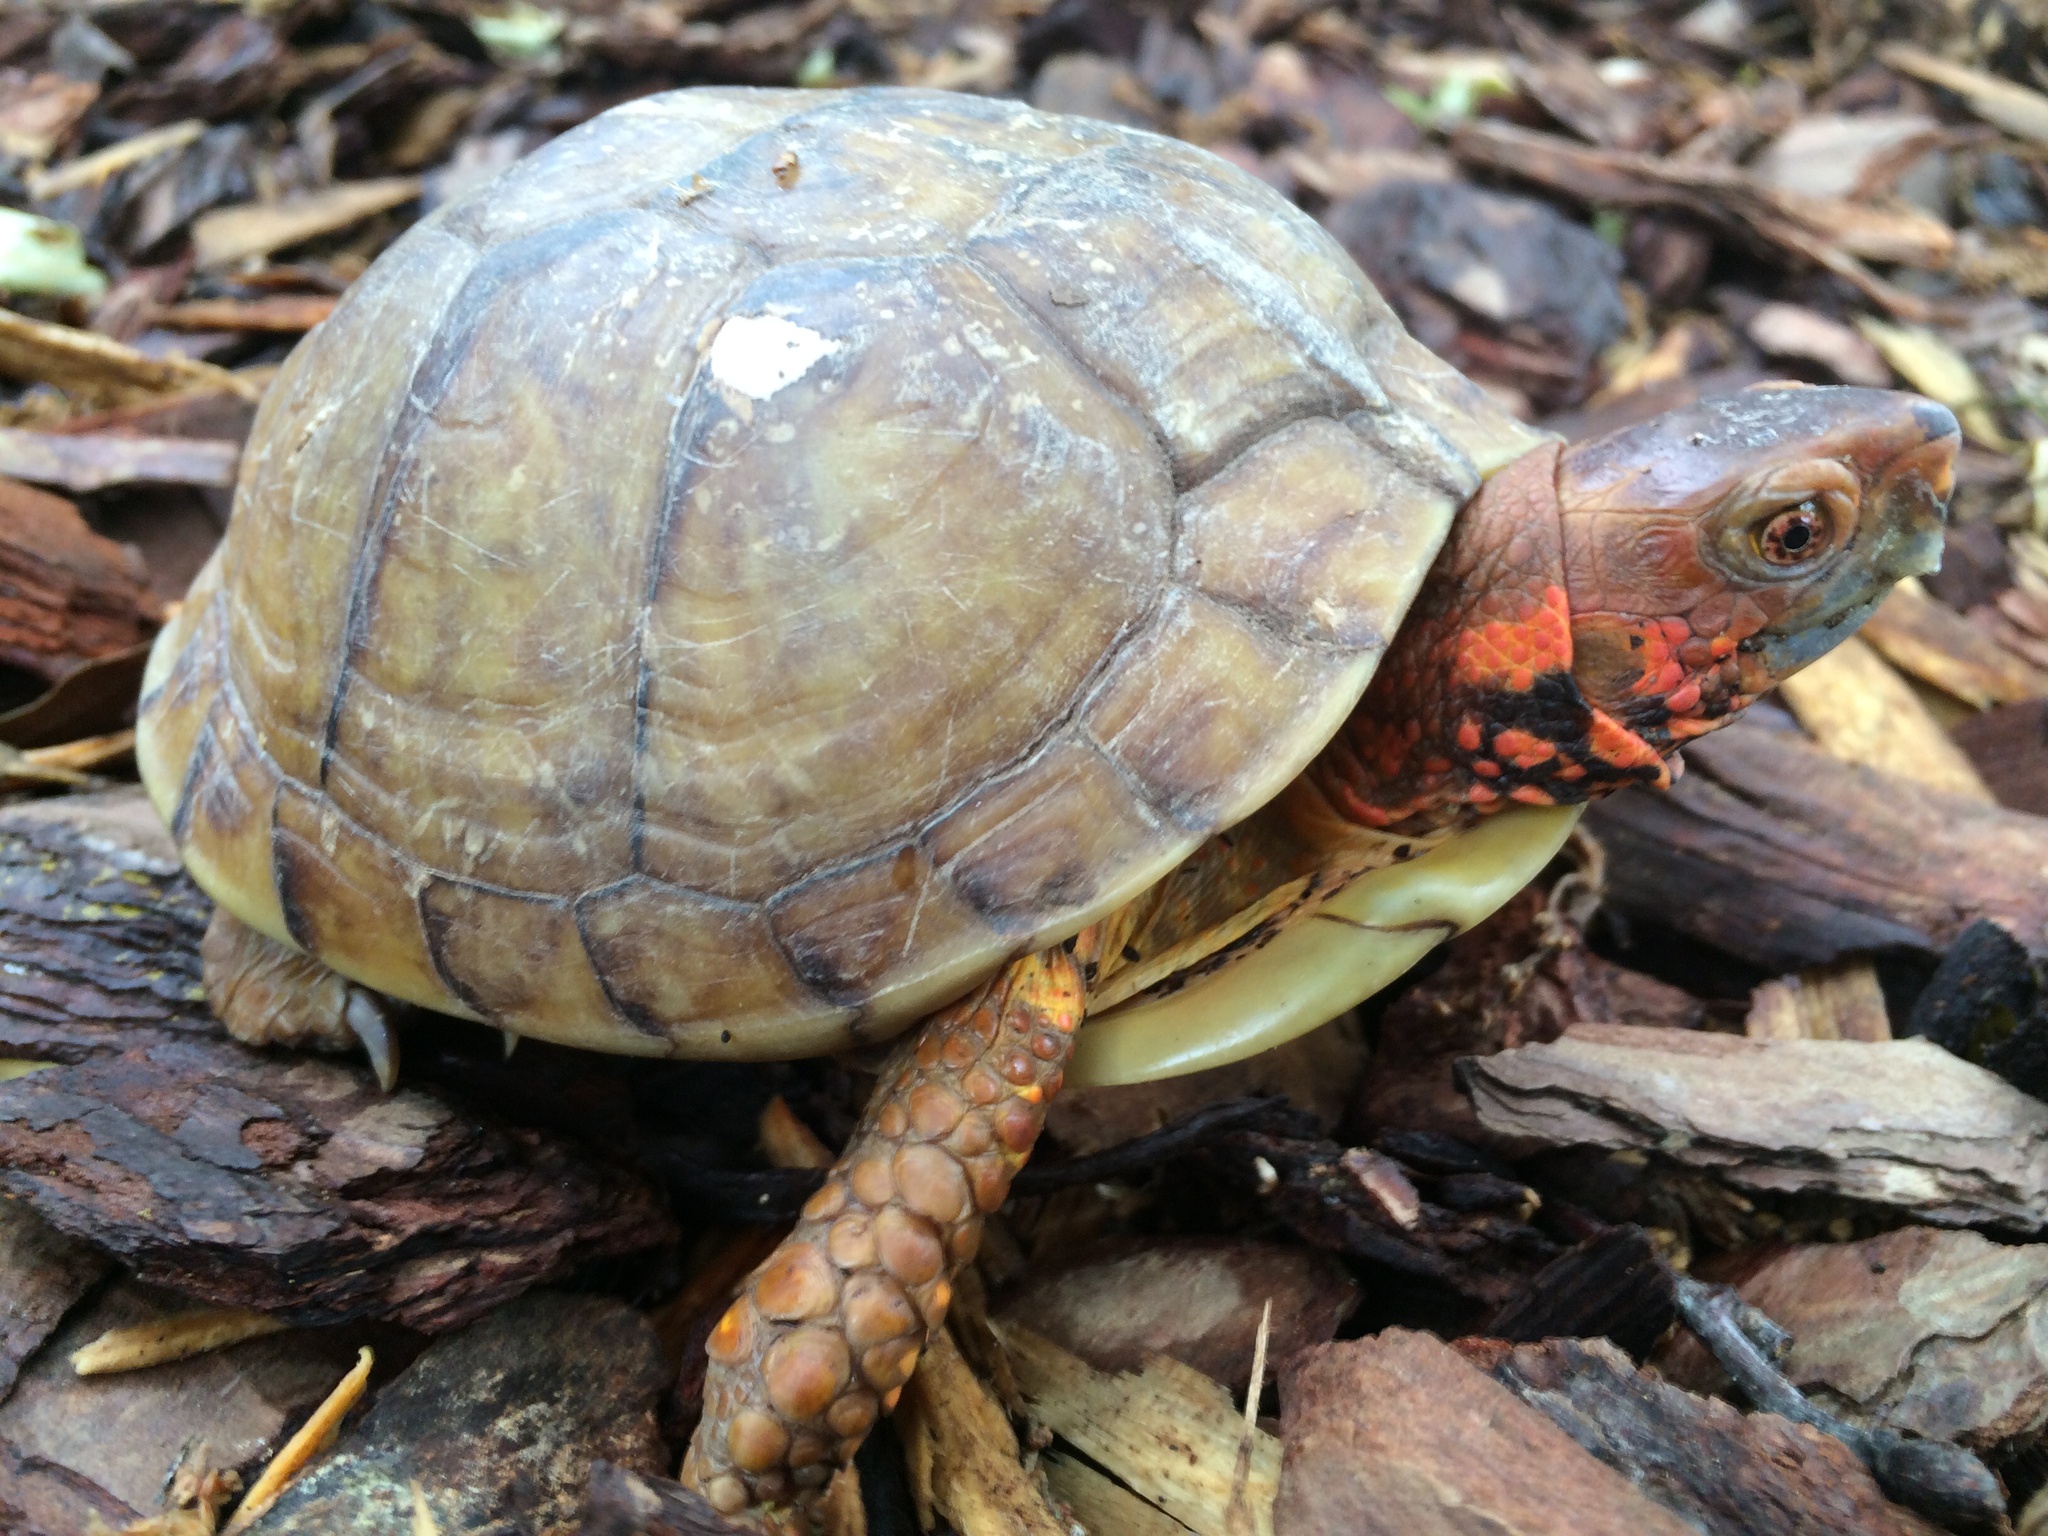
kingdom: Animalia
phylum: Chordata
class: Testudines
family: Emydidae
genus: Terrapene
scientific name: Terrapene carolina
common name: Common box turtle
